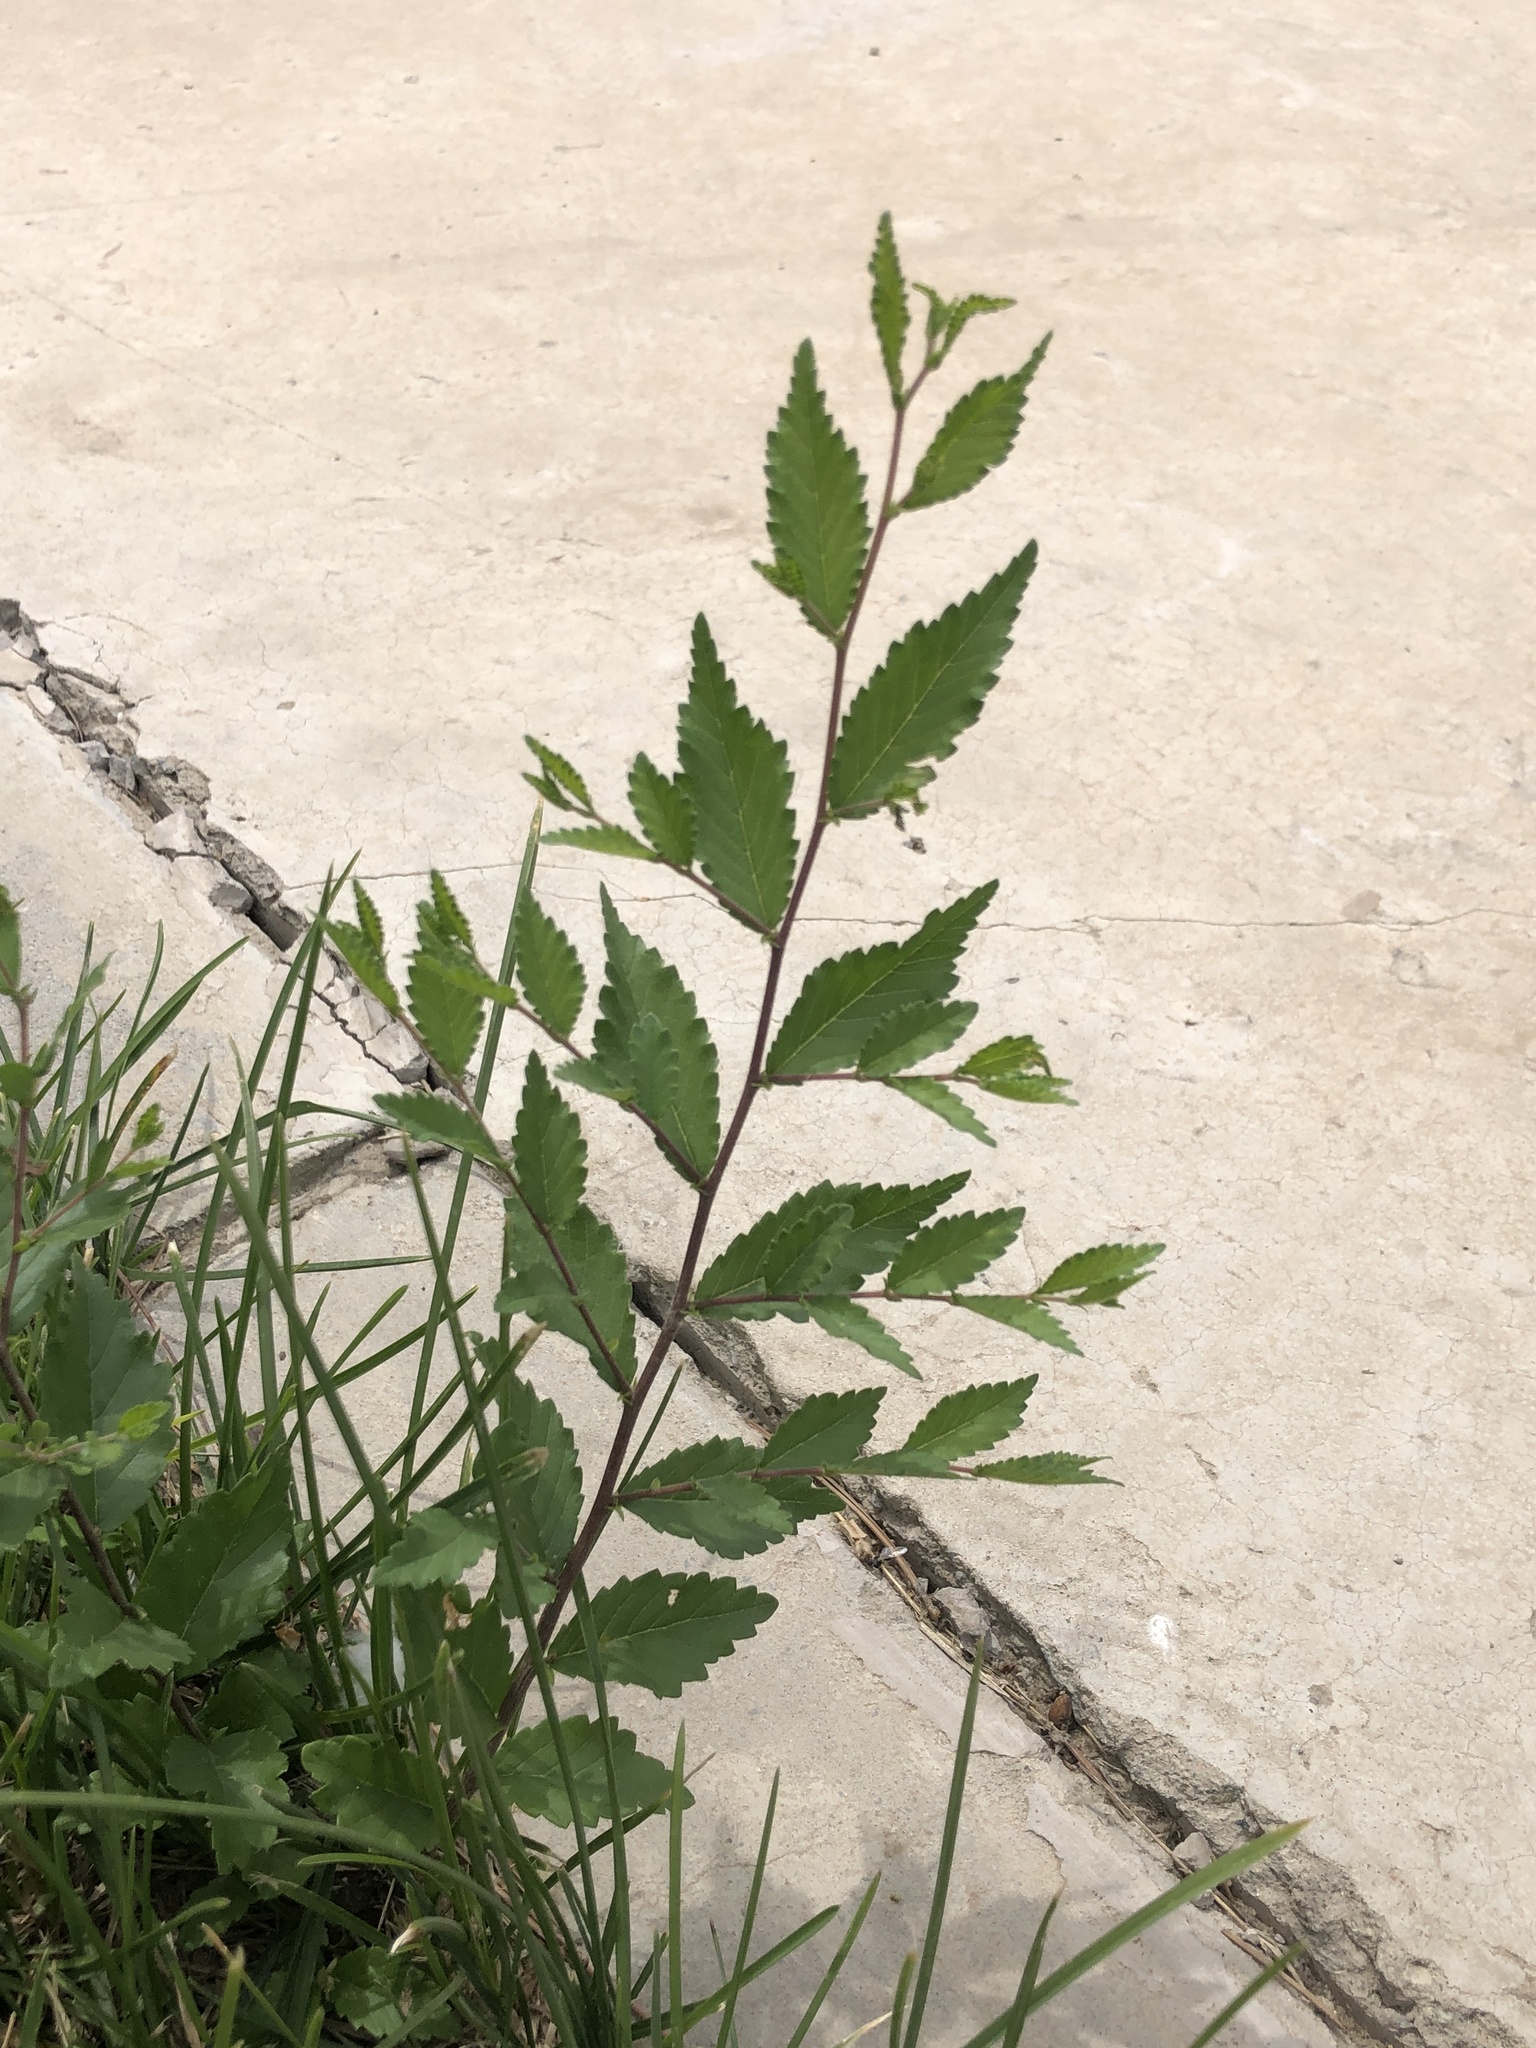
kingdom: Plantae
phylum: Tracheophyta
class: Magnoliopsida
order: Rosales
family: Ulmaceae
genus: Ulmus
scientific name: Ulmus pumila
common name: Siberian elm
